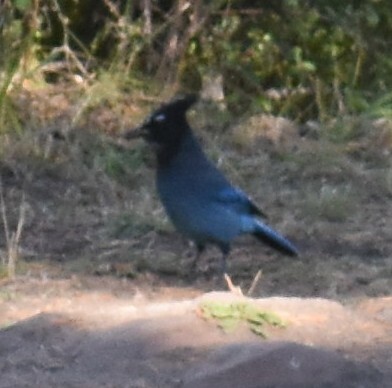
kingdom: Animalia
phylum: Chordata
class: Aves
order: Passeriformes
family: Corvidae
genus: Cyanocitta
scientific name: Cyanocitta stelleri
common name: Steller's jay
